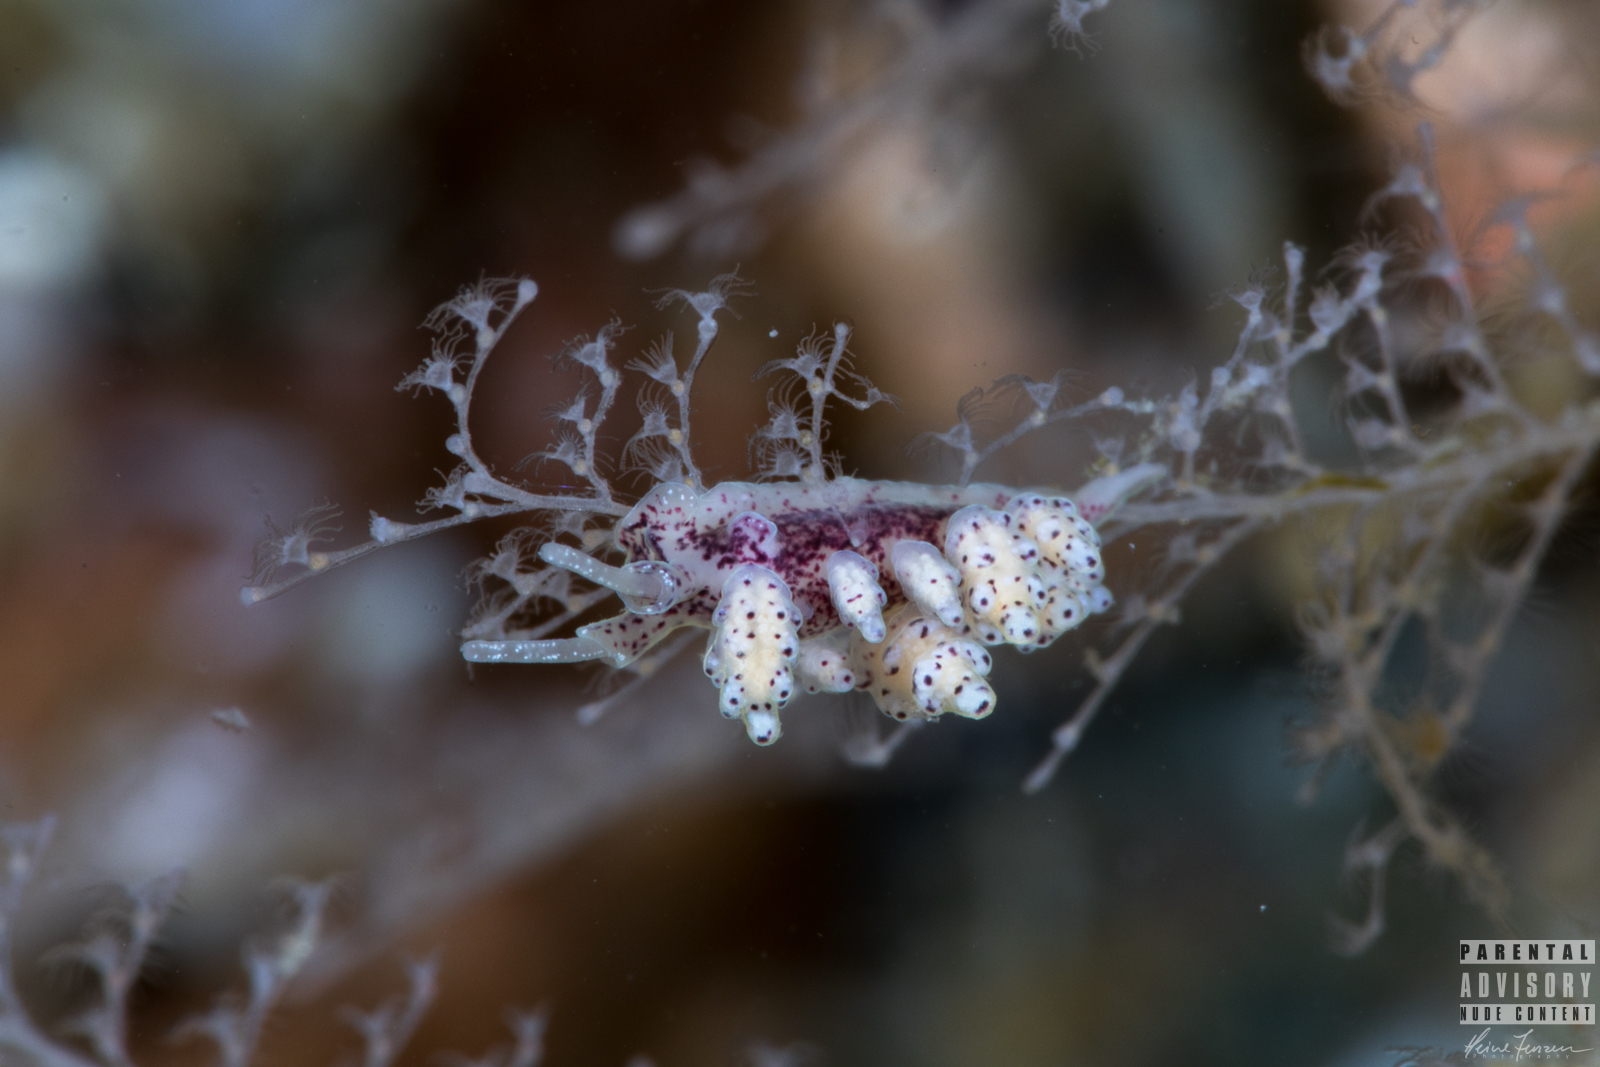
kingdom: Animalia
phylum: Mollusca
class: Gastropoda
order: Nudibranchia
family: Dotidae
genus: Doto
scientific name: Doto coronata
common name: Coronate doto
